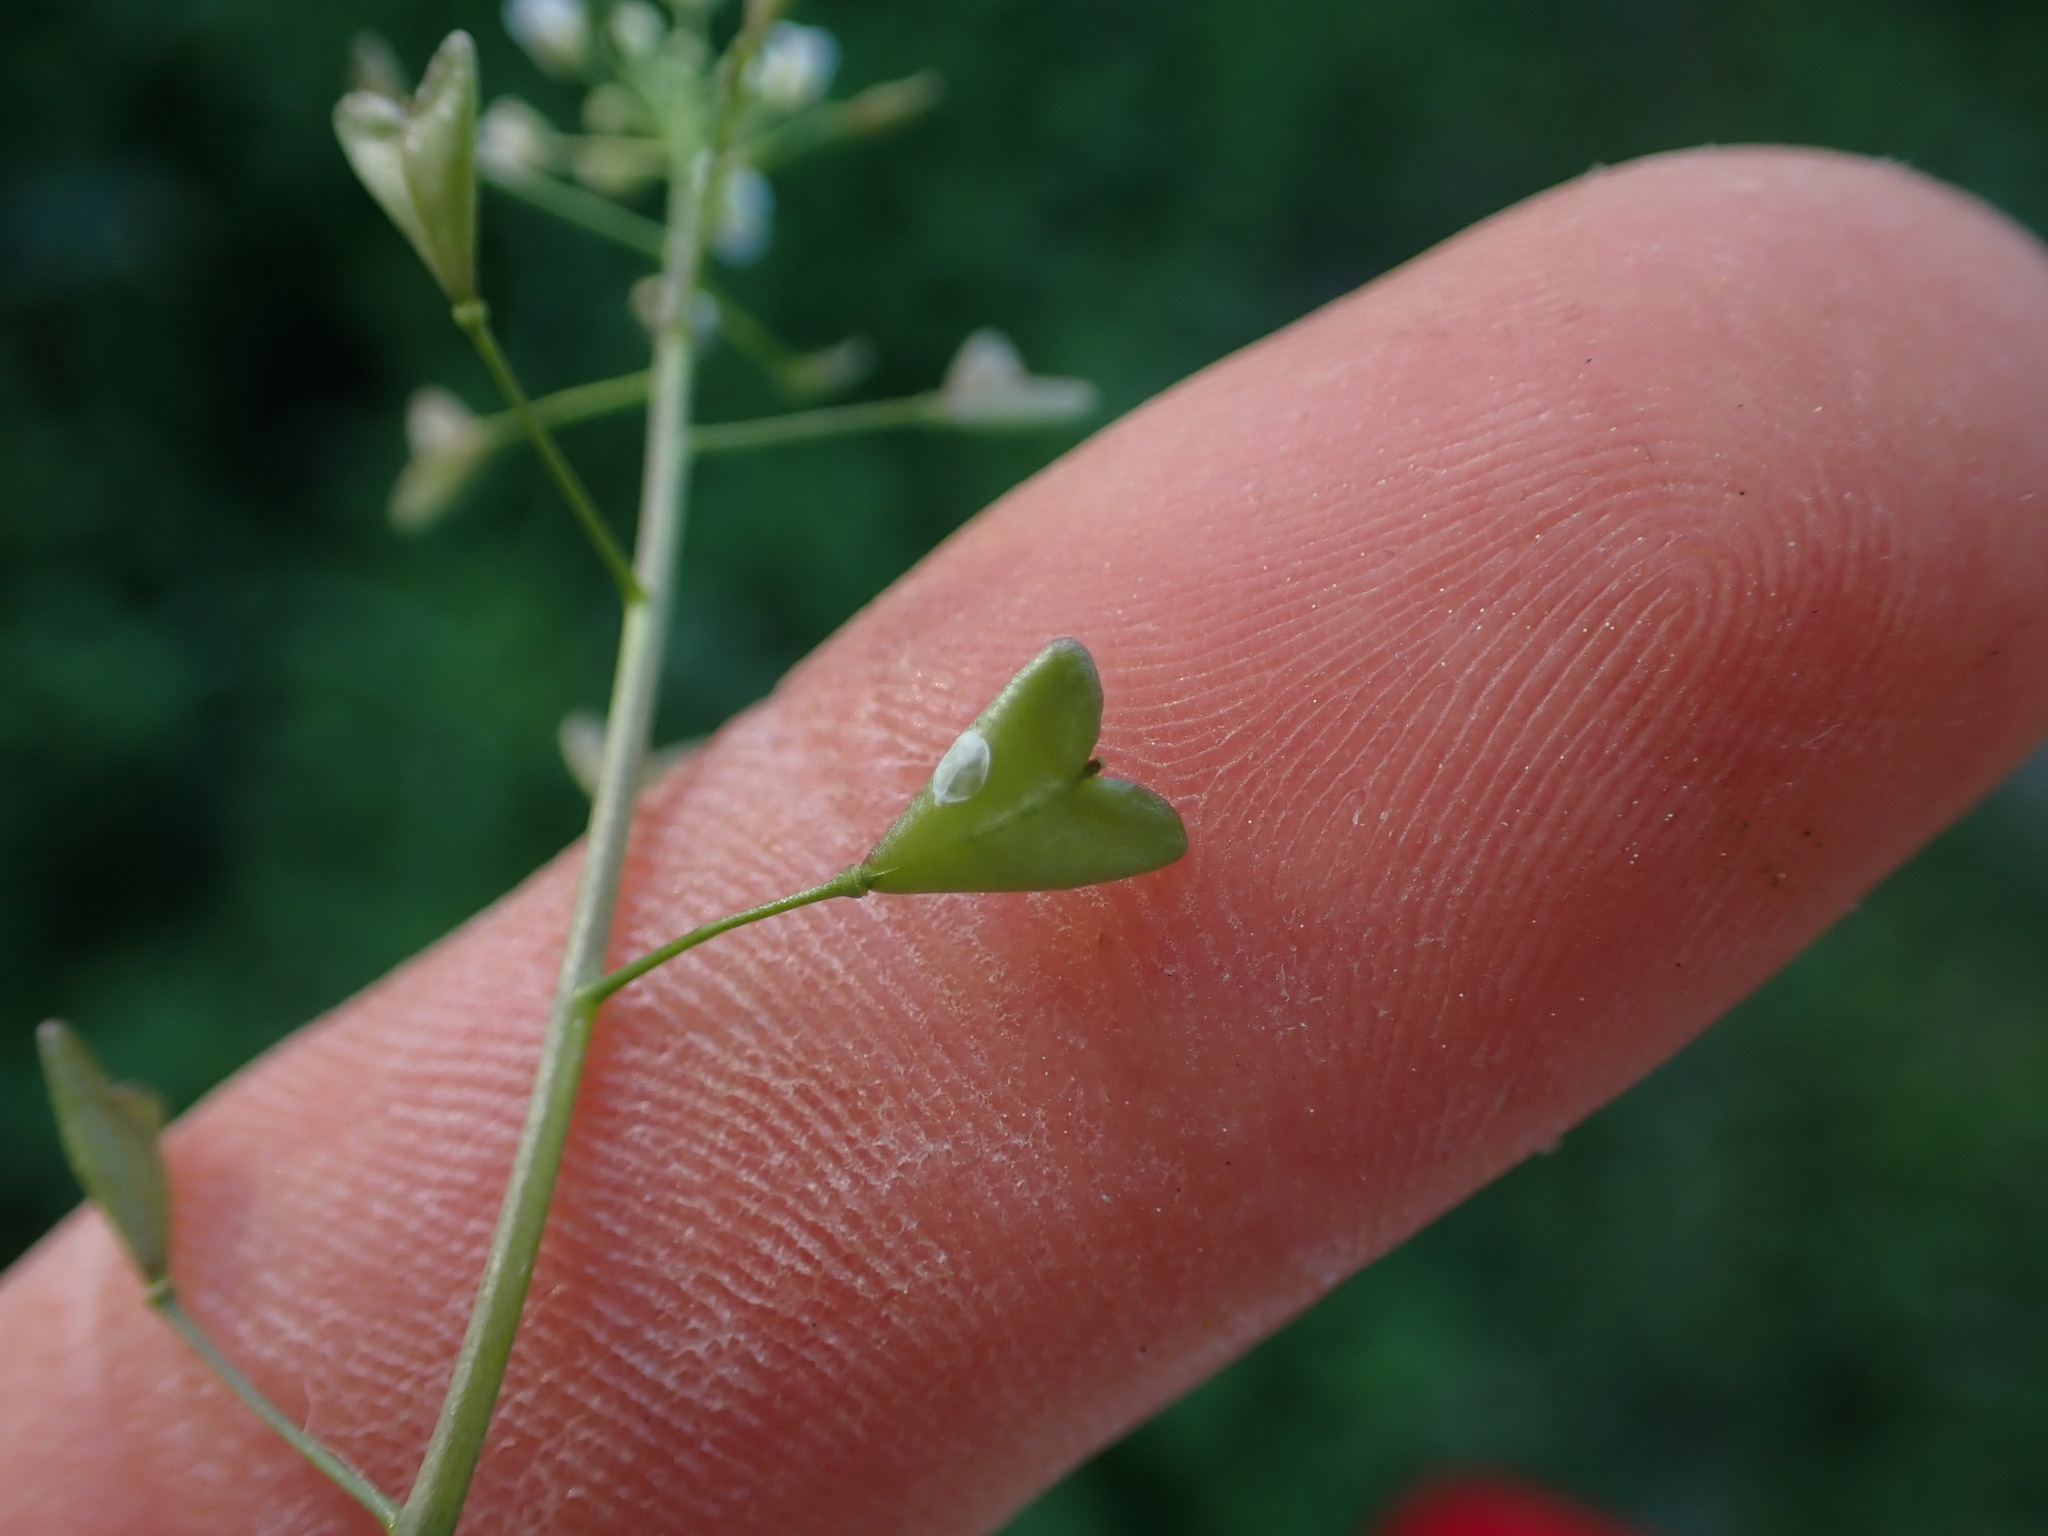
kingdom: Plantae
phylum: Tracheophyta
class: Magnoliopsida
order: Brassicales
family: Brassicaceae
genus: Capsella
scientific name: Capsella bursa-pastoris
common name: Shepherd's purse
